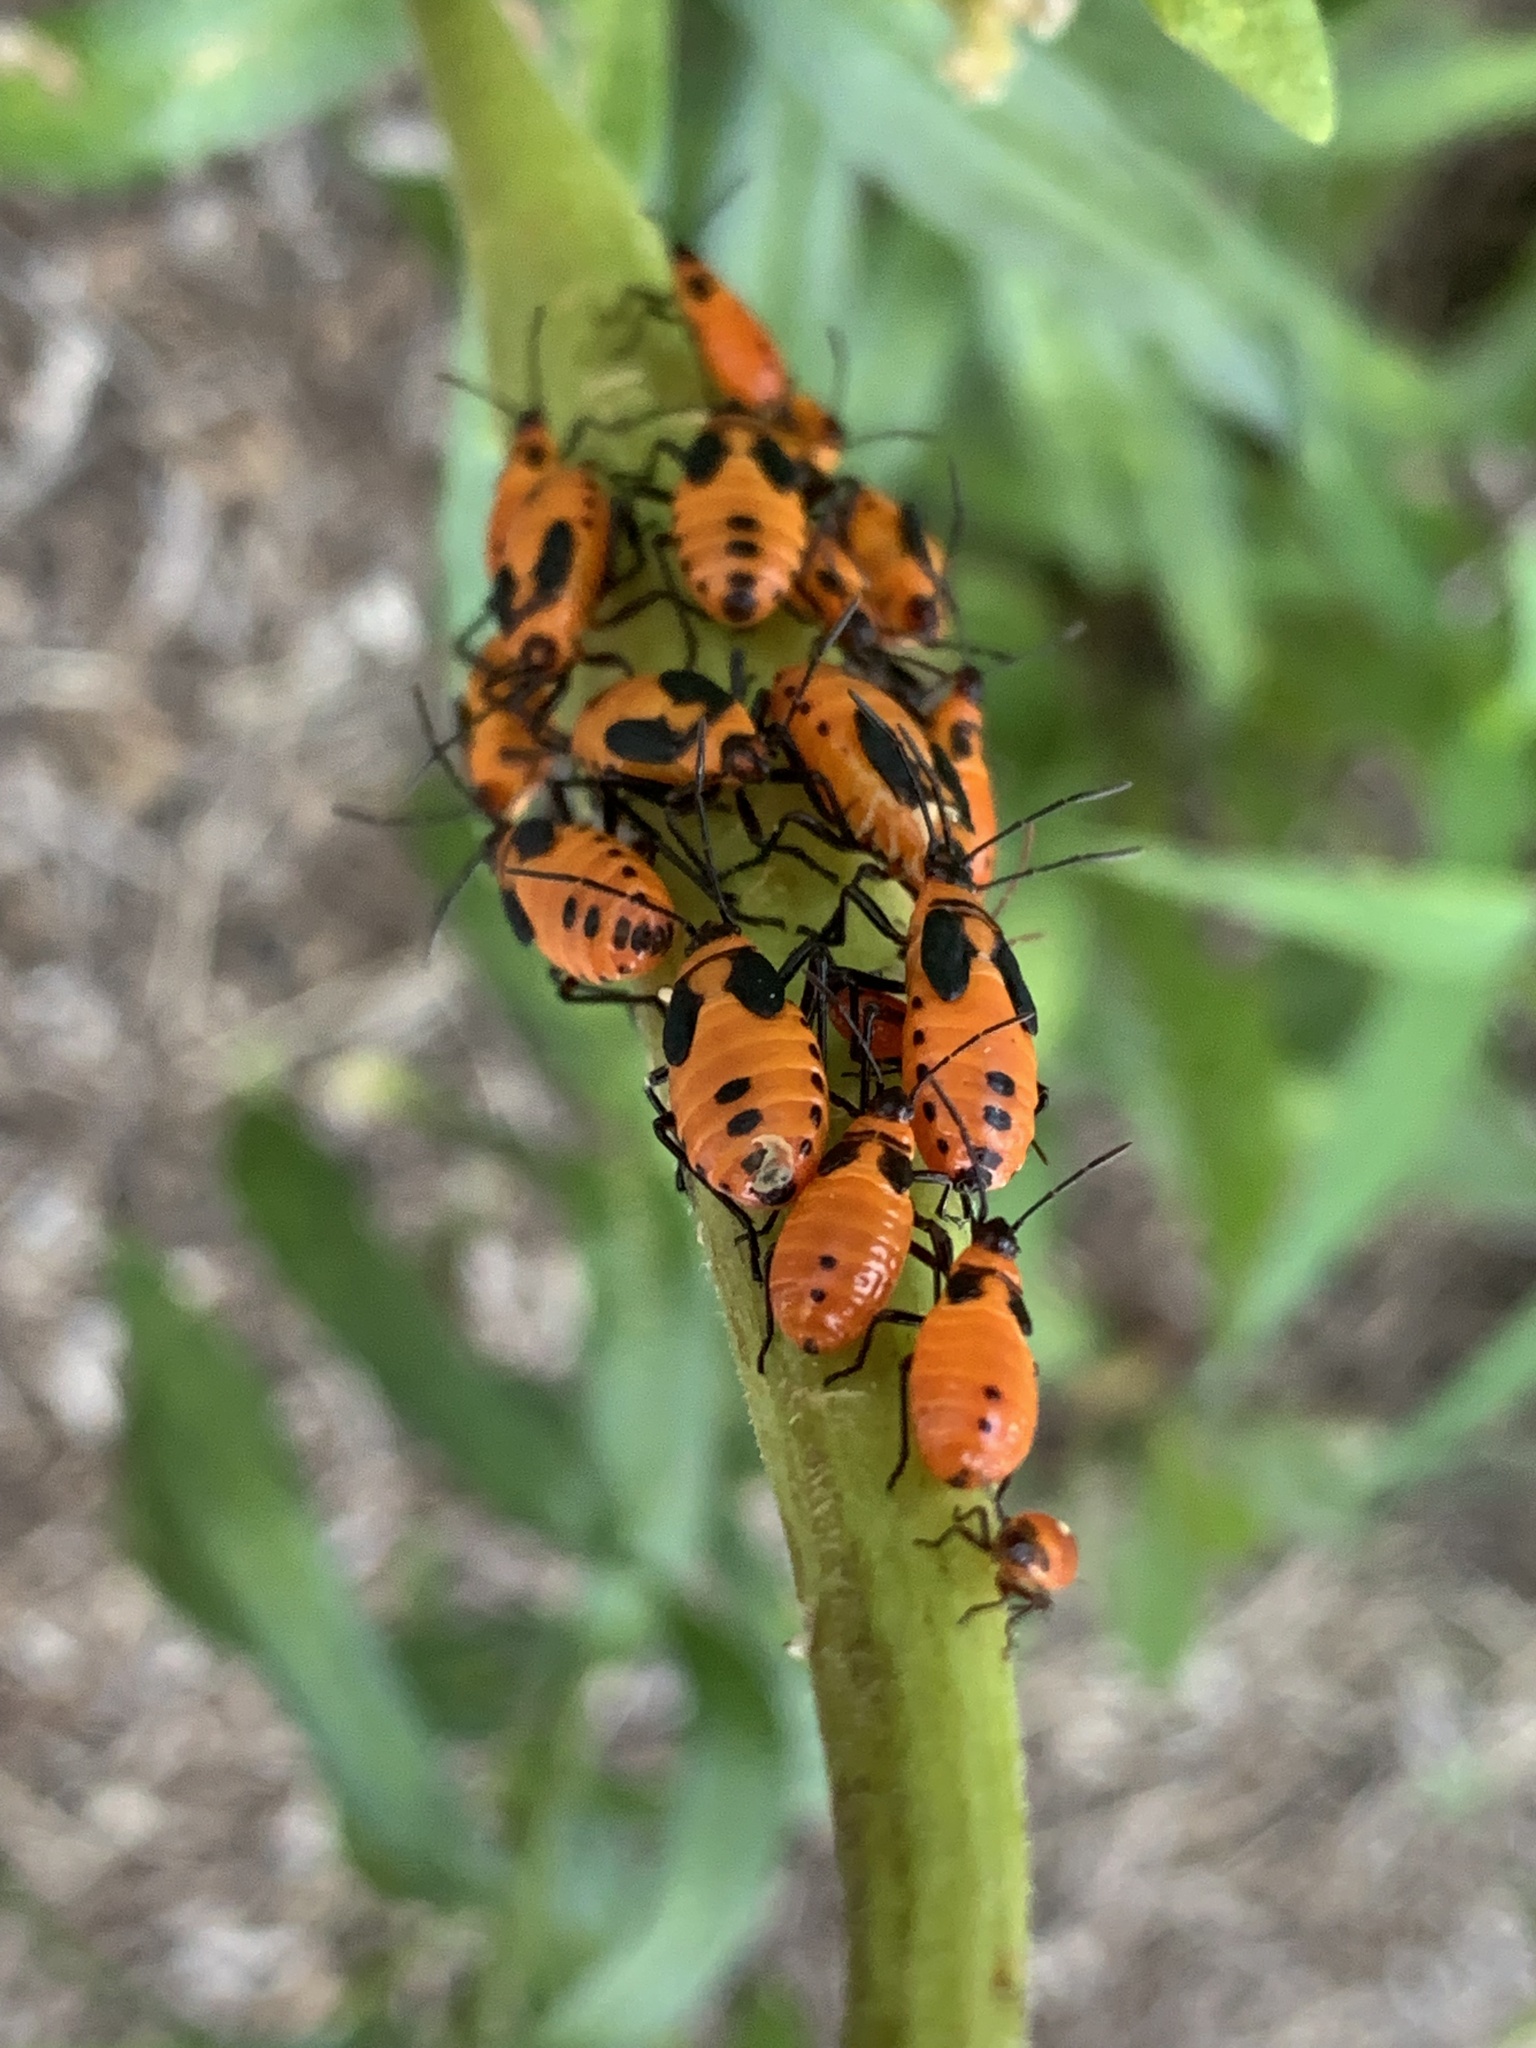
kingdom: Animalia
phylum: Arthropoda
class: Insecta
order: Hemiptera
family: Lygaeidae
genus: Oncopeltus
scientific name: Oncopeltus fasciatus
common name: Large milkweed bug
